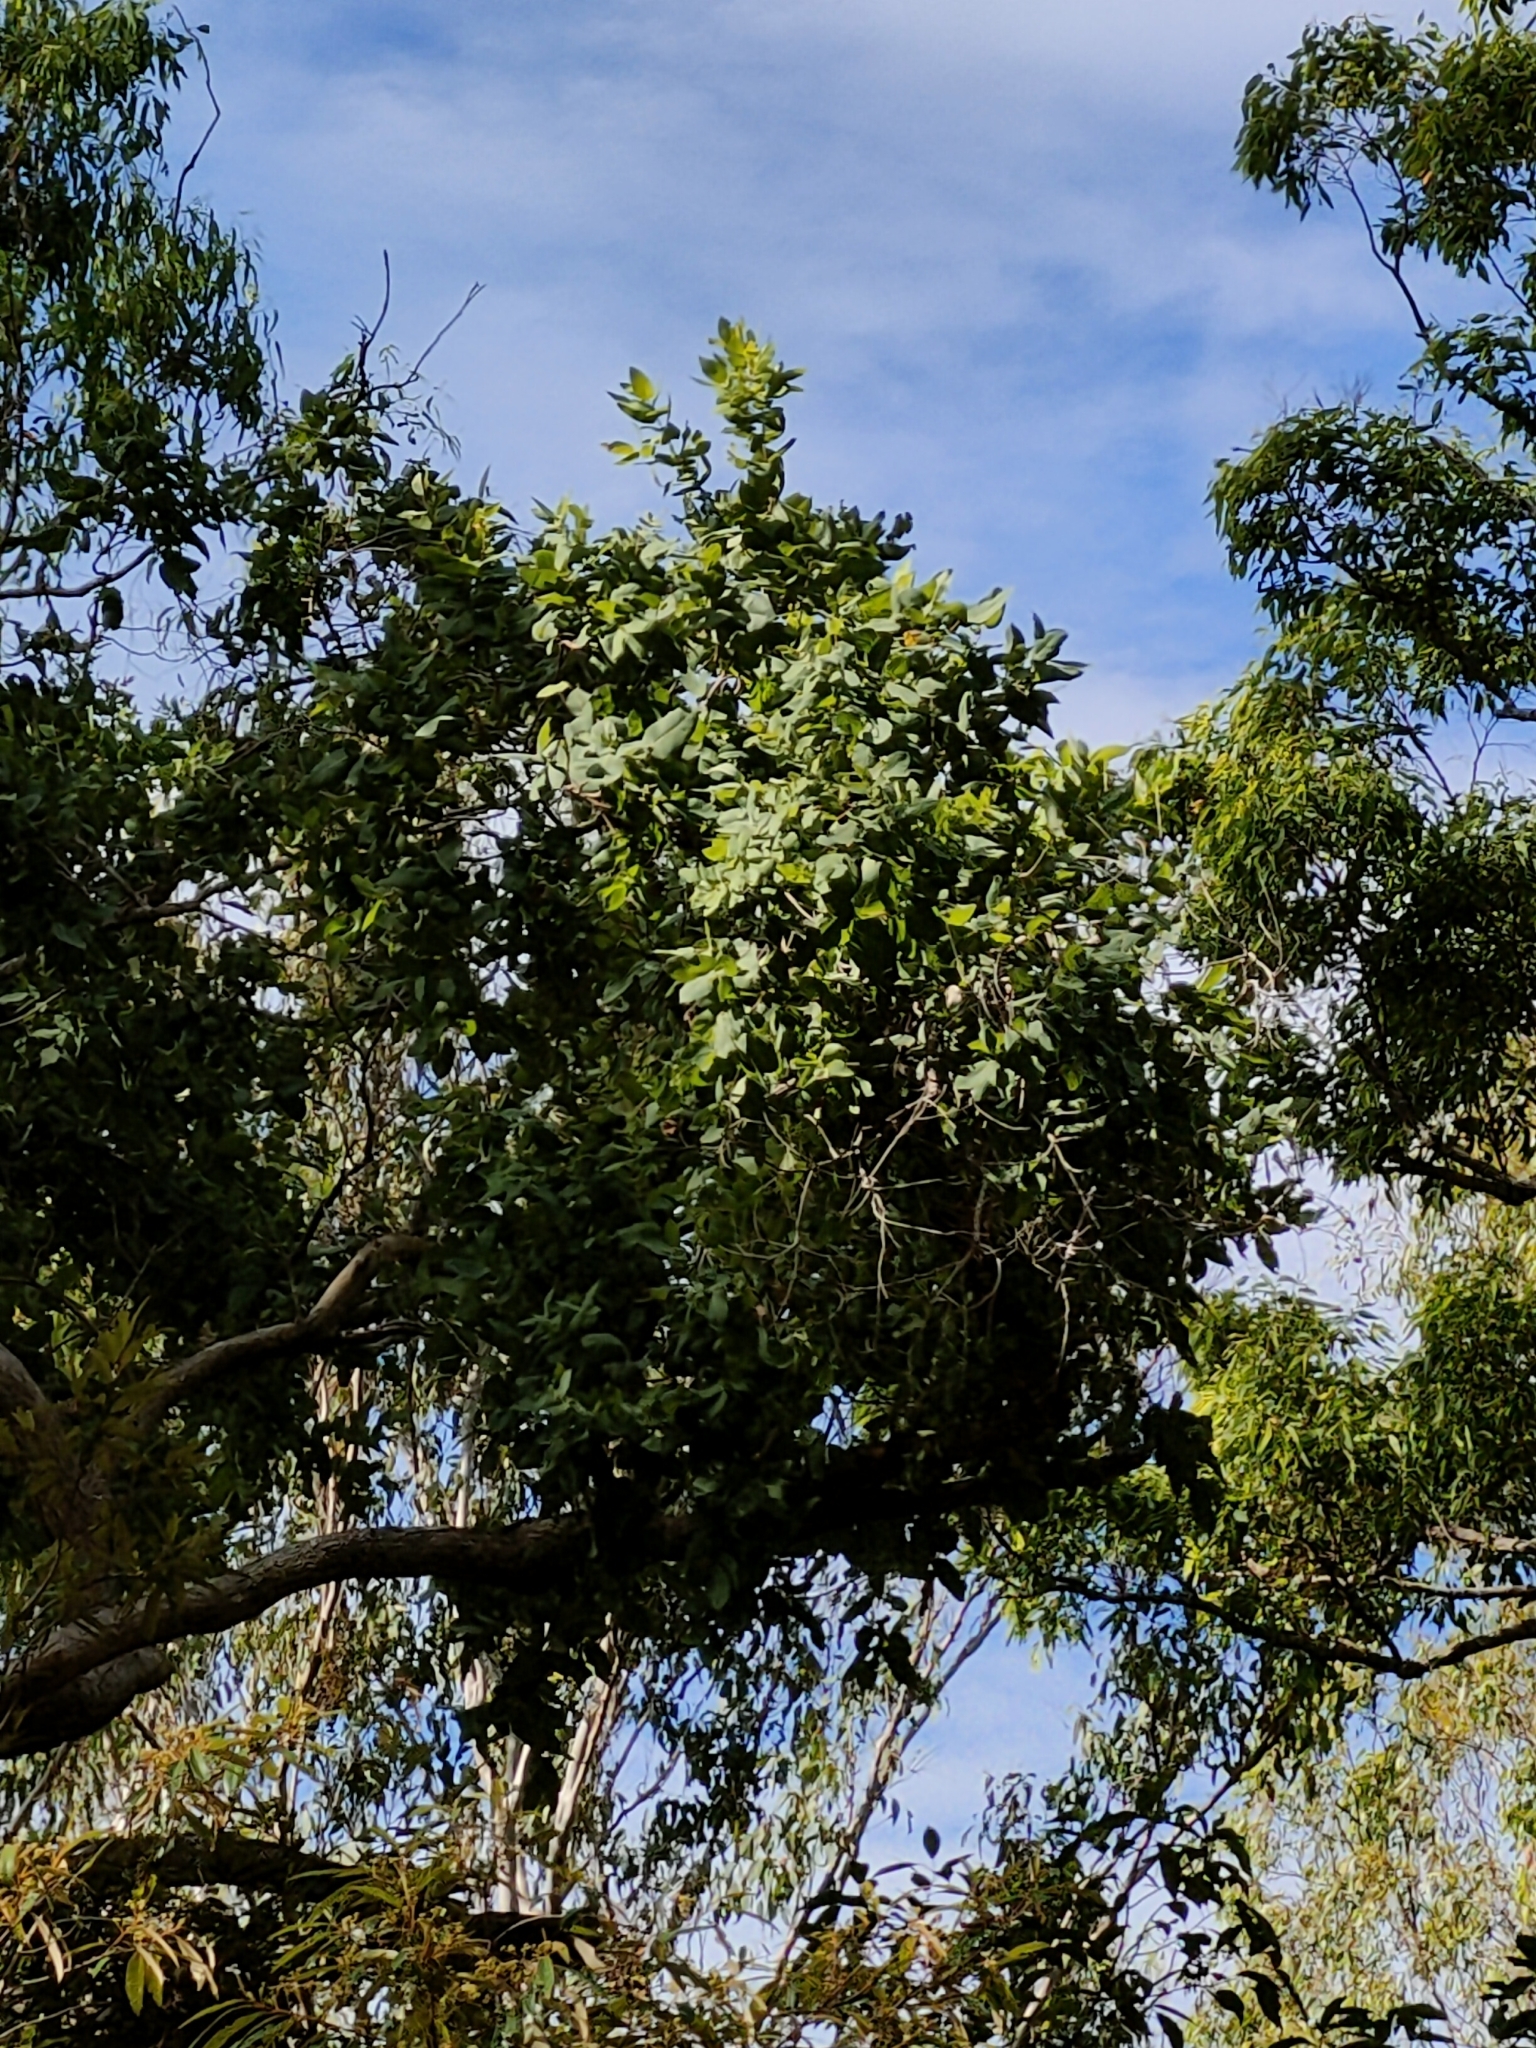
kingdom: Plantae
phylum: Tracheophyta
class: Magnoliopsida
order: Myrtales
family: Myrtaceae
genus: Angophora
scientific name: Angophora subvelutina
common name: Broad-leaved apple
